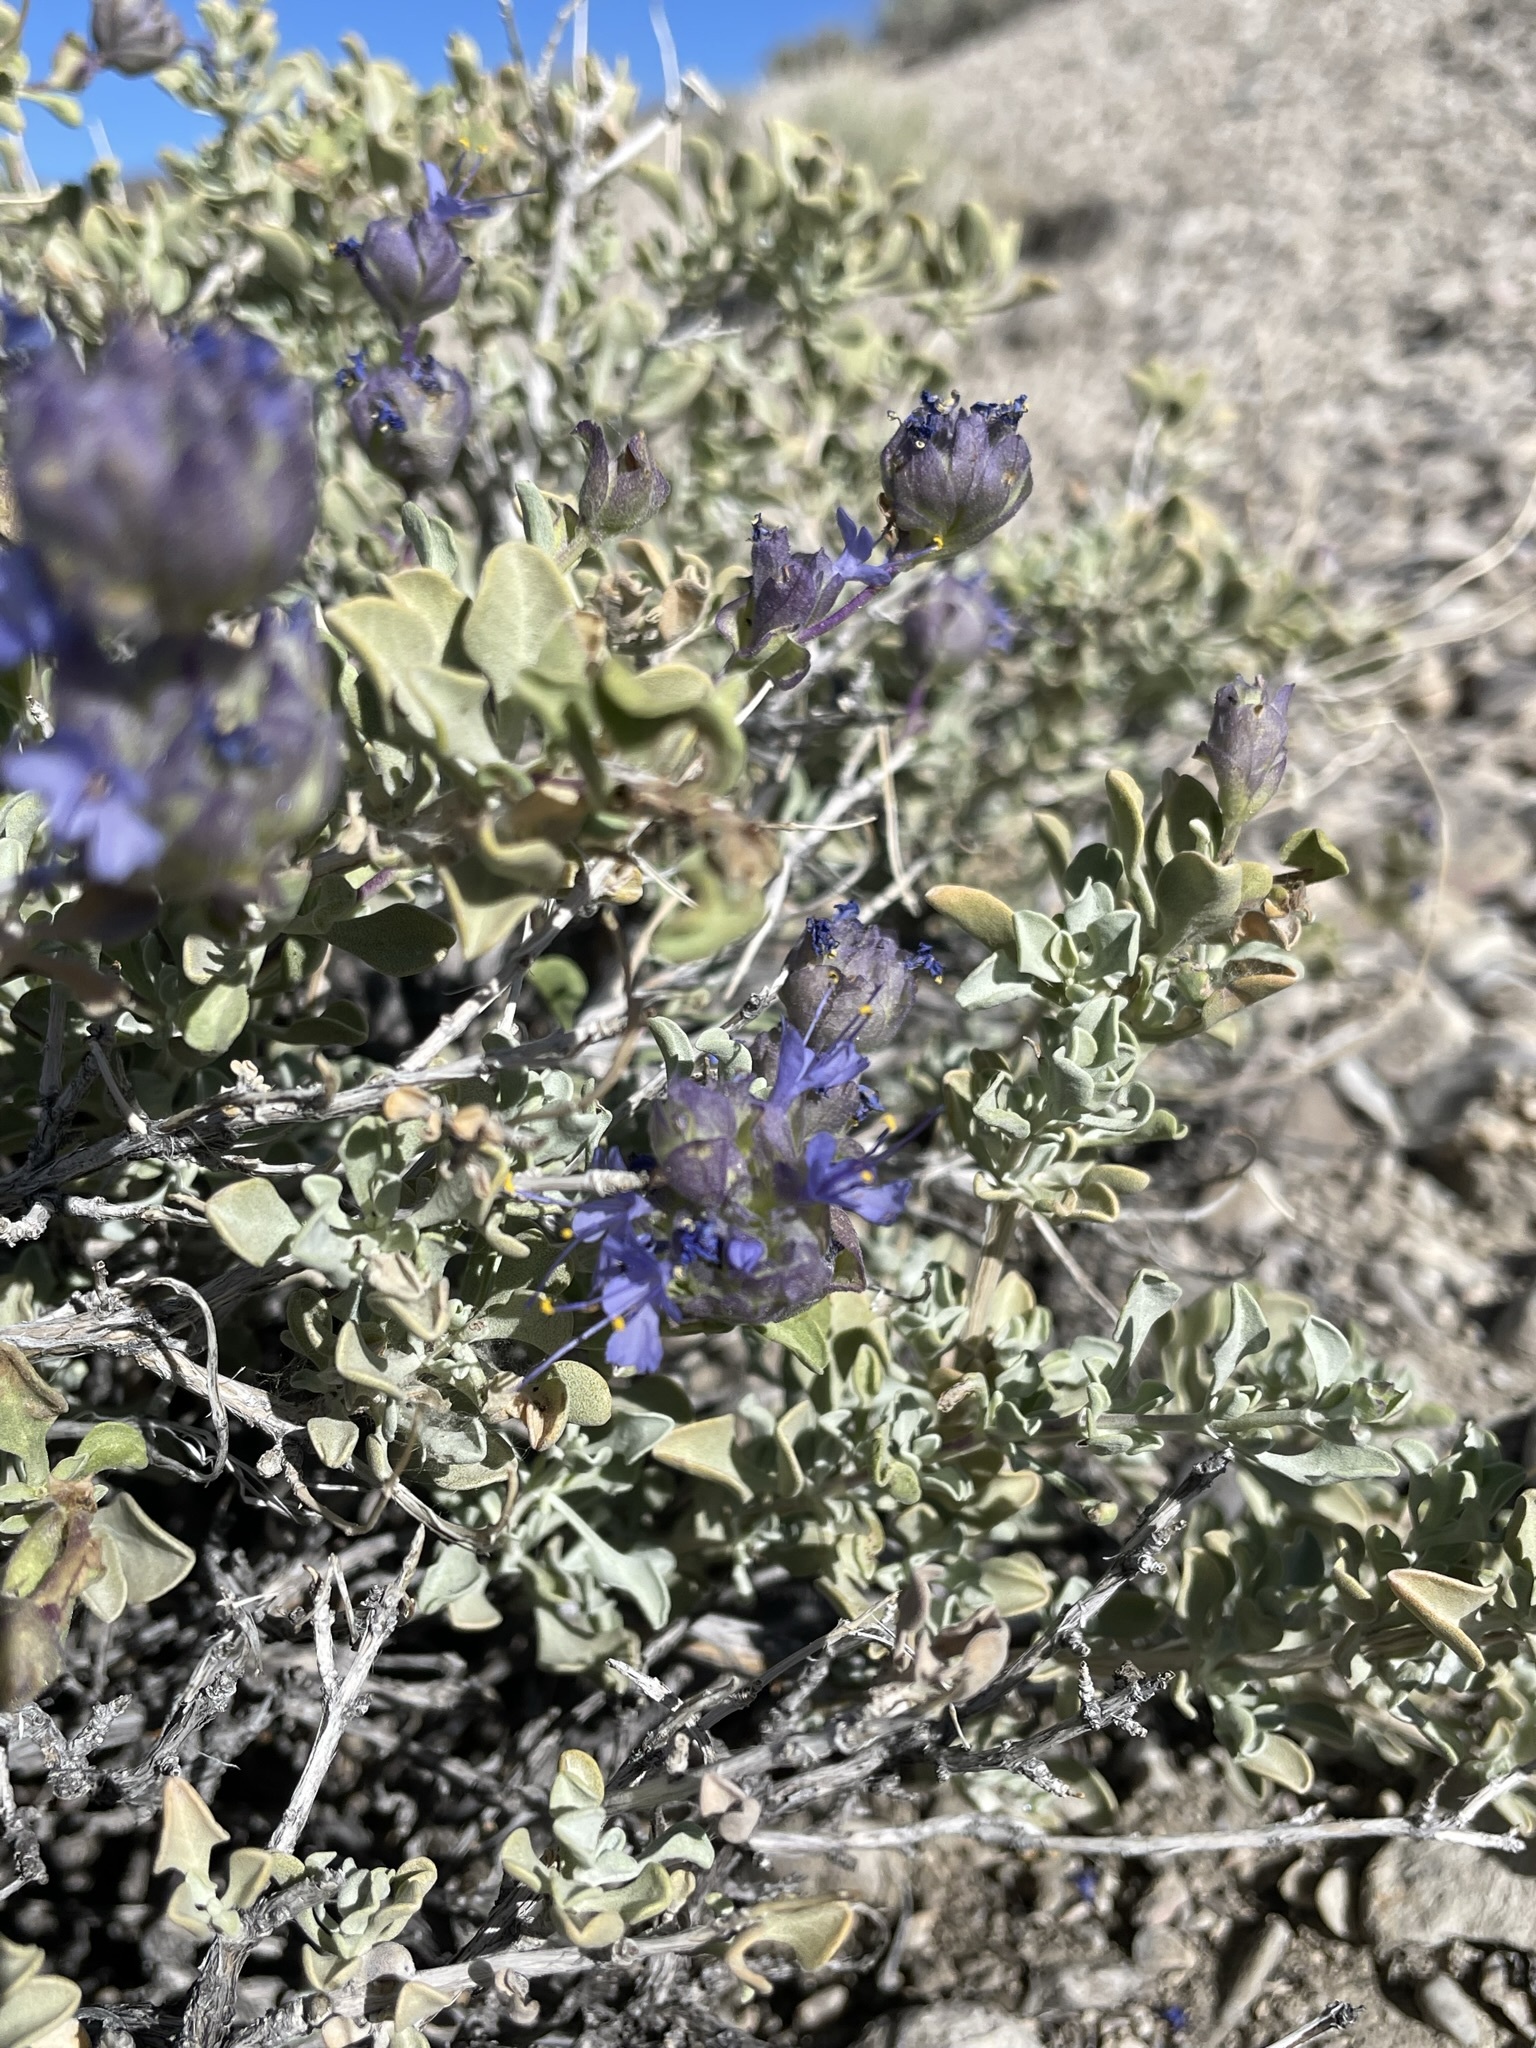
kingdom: Plantae
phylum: Tracheophyta
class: Magnoliopsida
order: Lamiales
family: Lamiaceae
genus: Salvia
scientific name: Salvia dorrii
